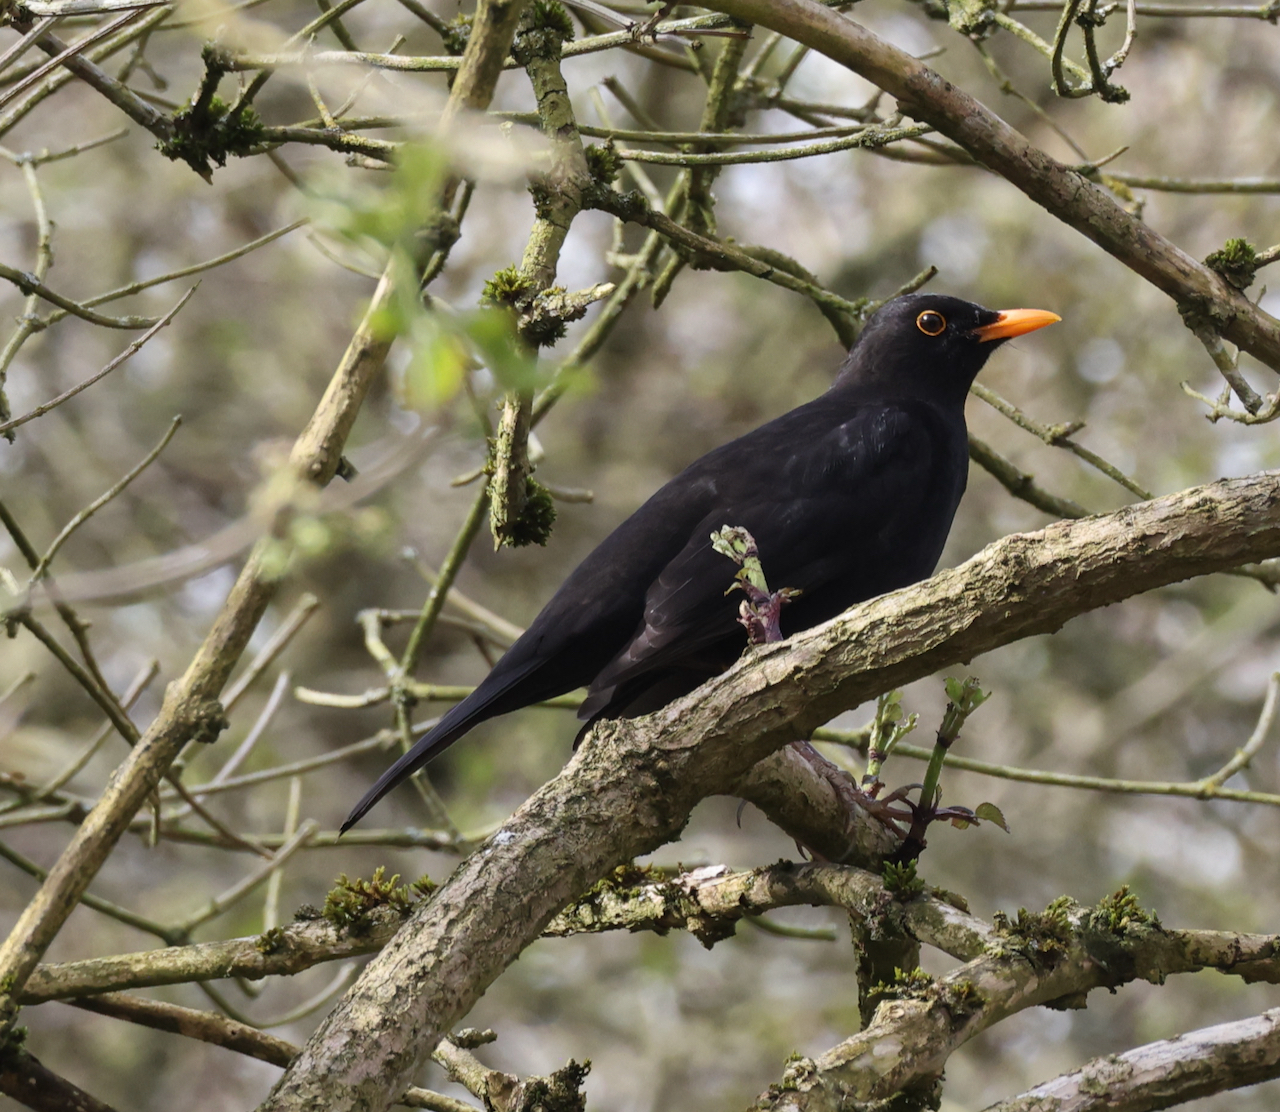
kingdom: Animalia
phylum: Chordata
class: Aves
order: Passeriformes
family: Turdidae
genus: Turdus
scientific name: Turdus merula
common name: Common blackbird
